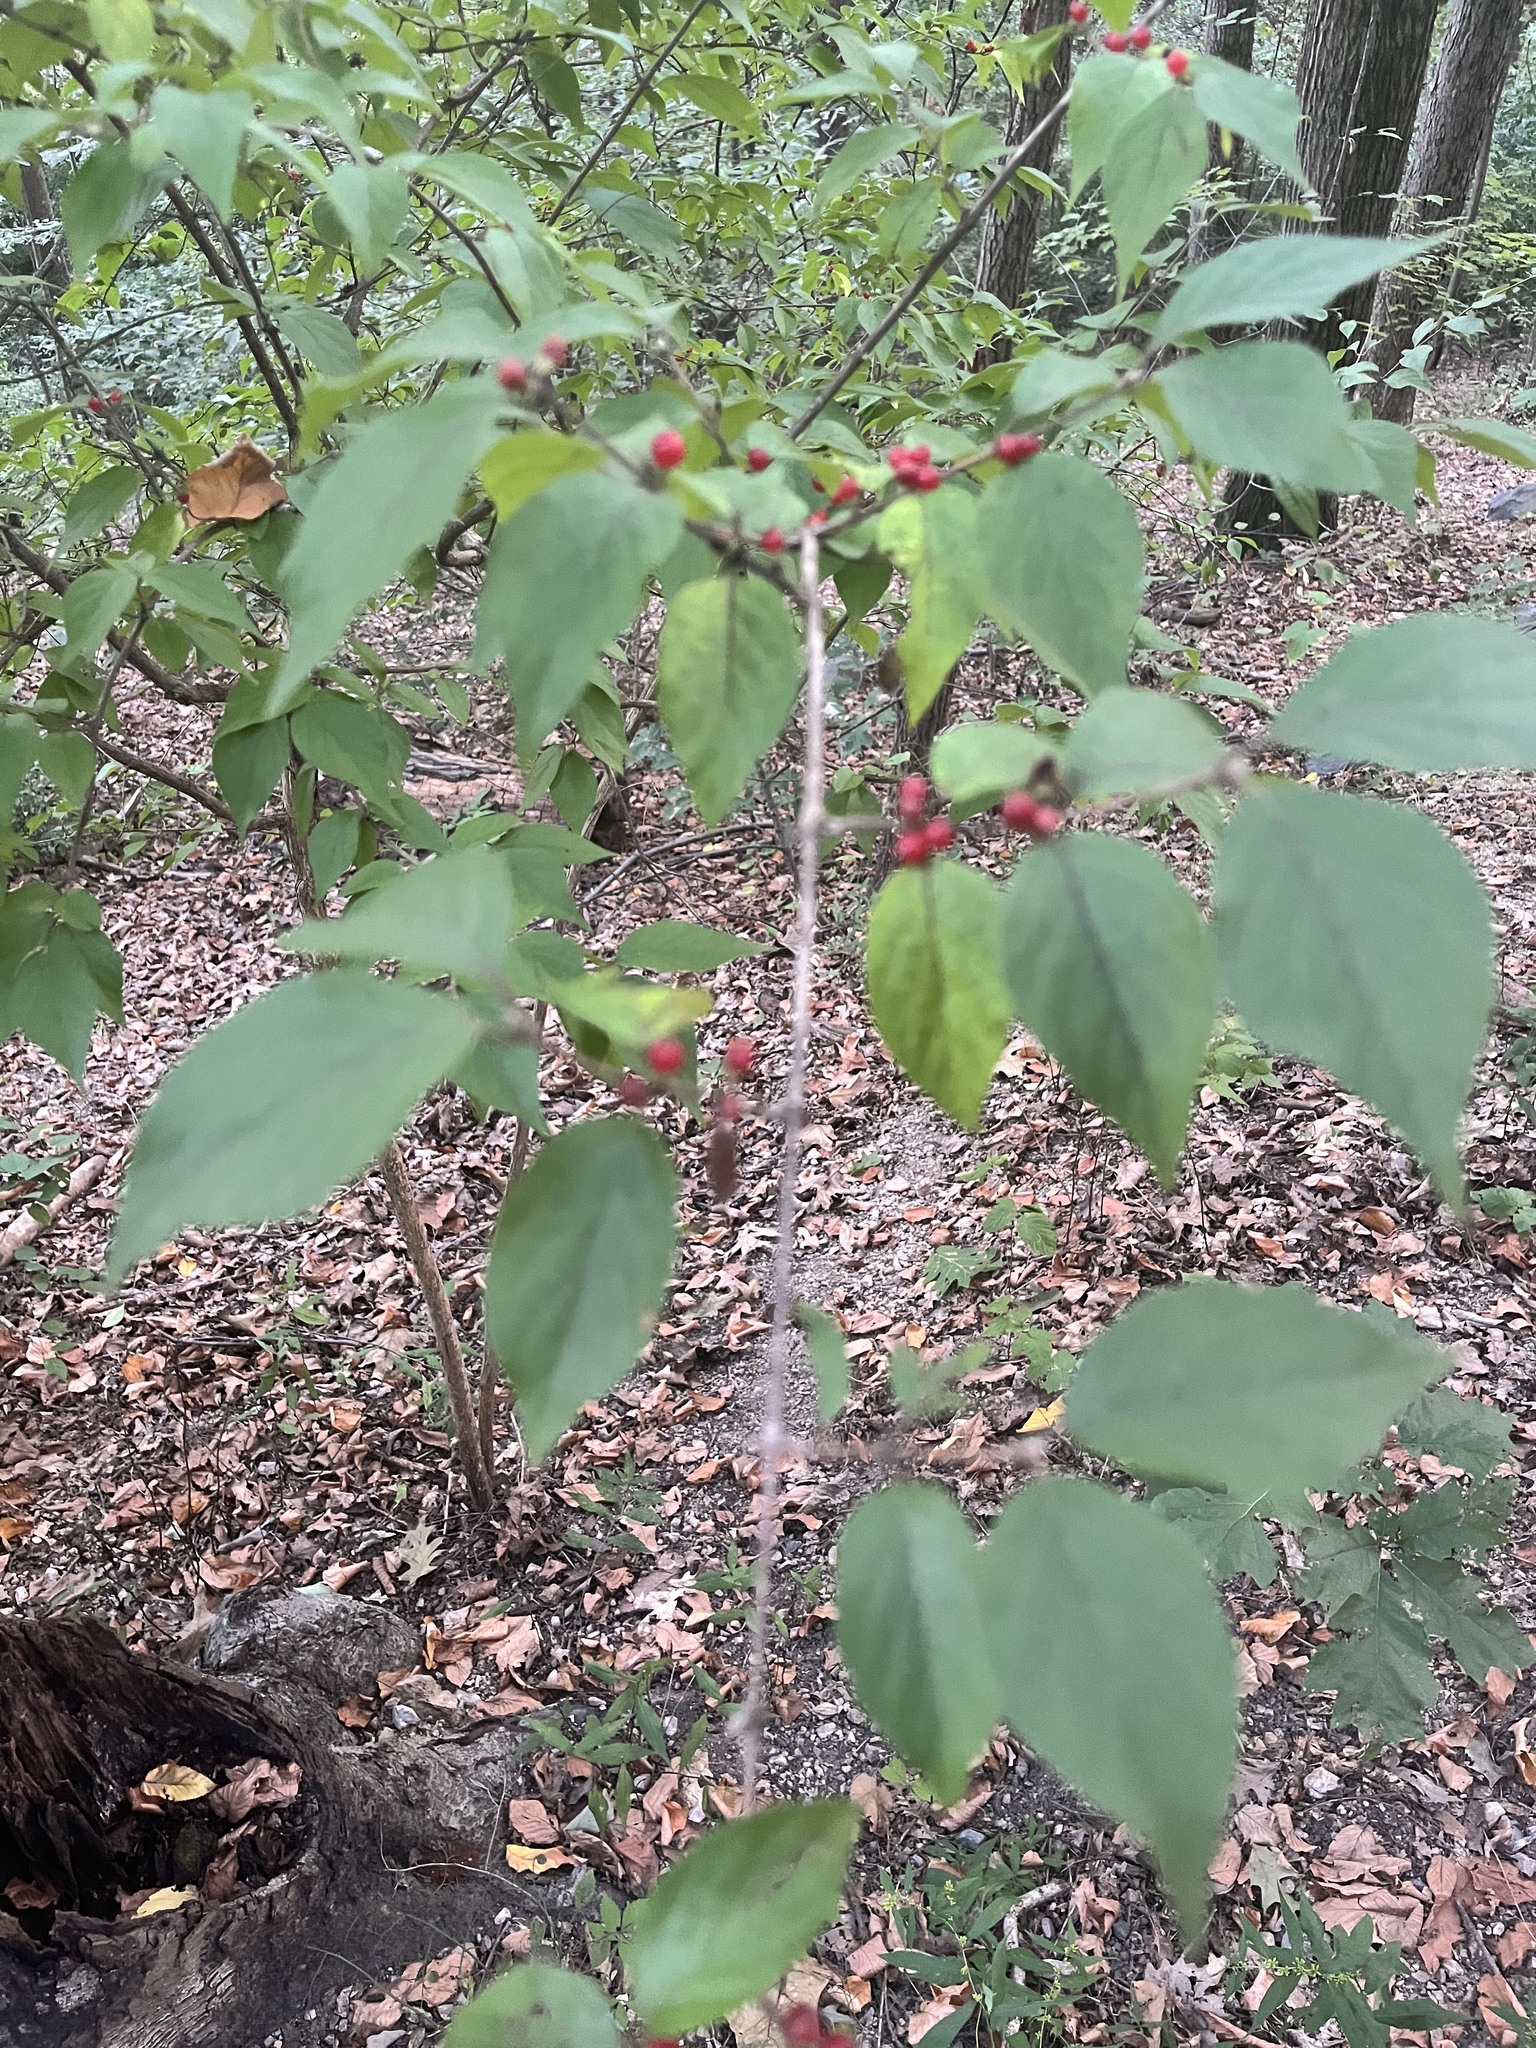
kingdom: Plantae
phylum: Tracheophyta
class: Magnoliopsida
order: Dipsacales
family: Caprifoliaceae
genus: Lonicera
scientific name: Lonicera maackii
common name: Amur honeysuckle
